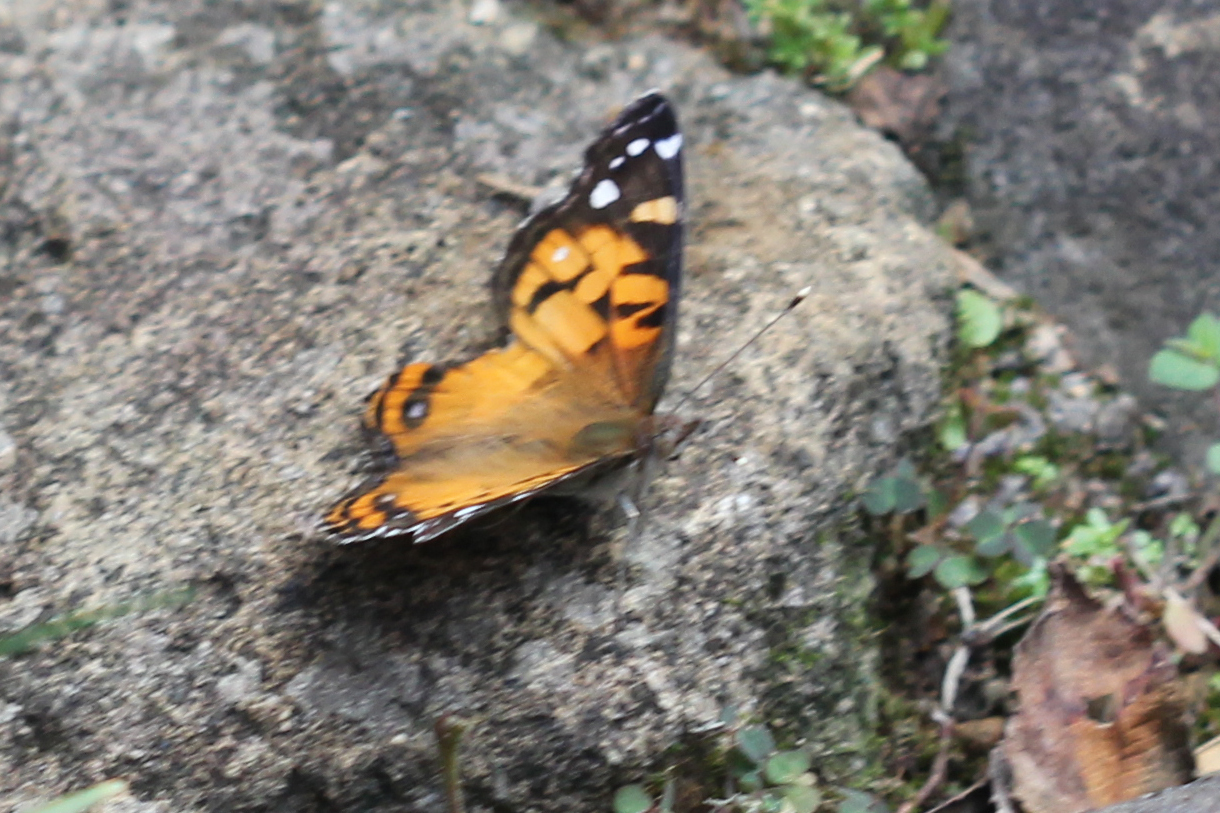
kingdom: Animalia
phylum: Arthropoda
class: Insecta
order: Lepidoptera
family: Nymphalidae
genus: Vanessa
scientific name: Vanessa virginiensis
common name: American lady
